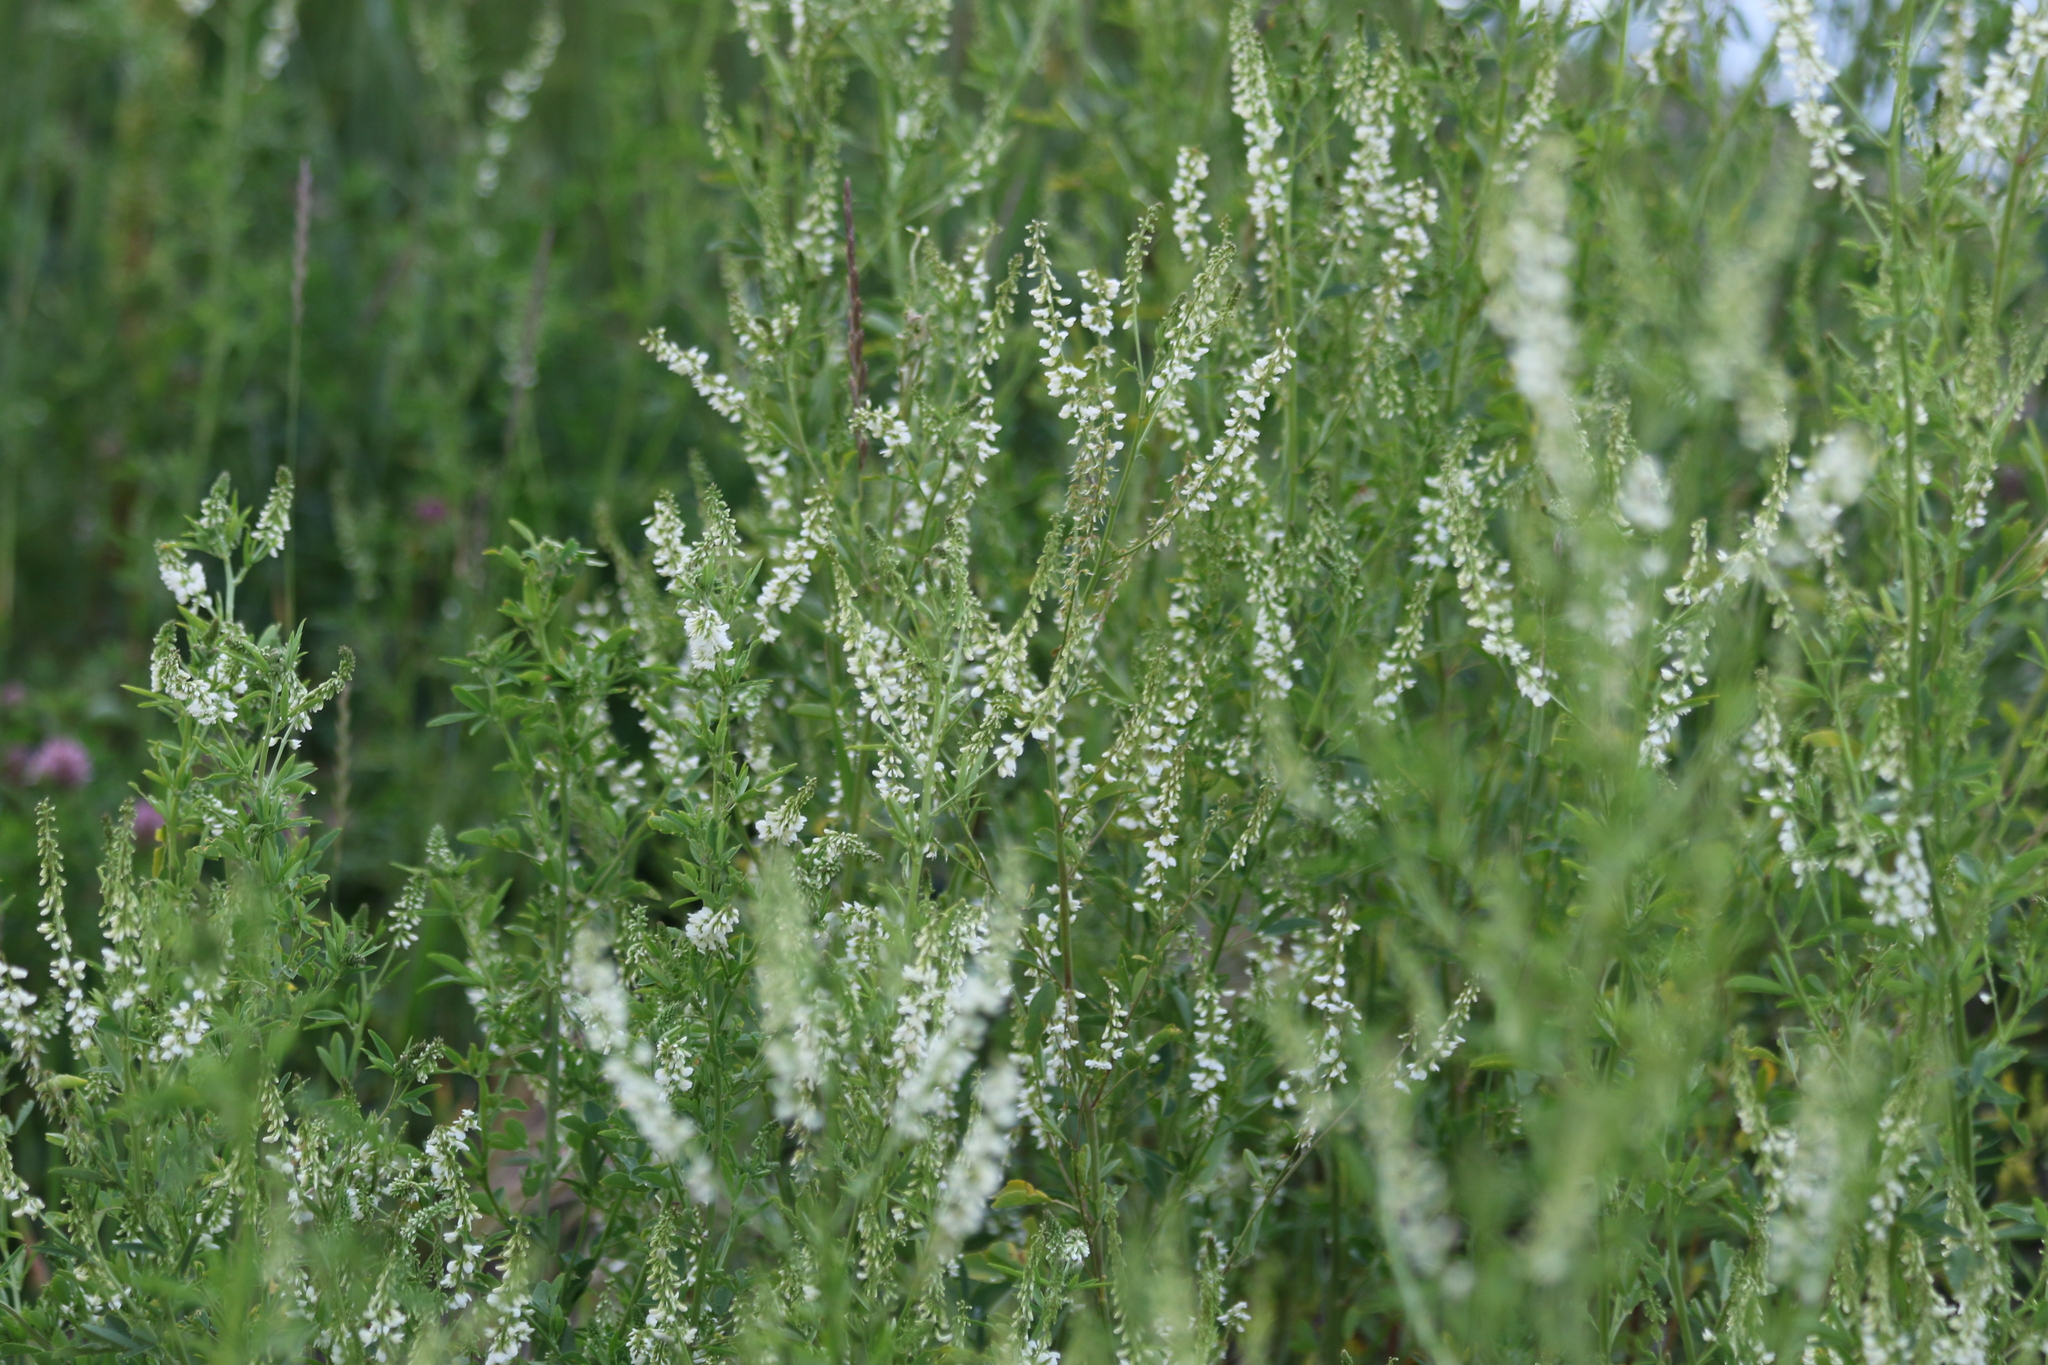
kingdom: Plantae
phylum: Tracheophyta
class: Magnoliopsida
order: Fabales
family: Fabaceae
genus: Melilotus
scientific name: Melilotus albus
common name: White melilot
